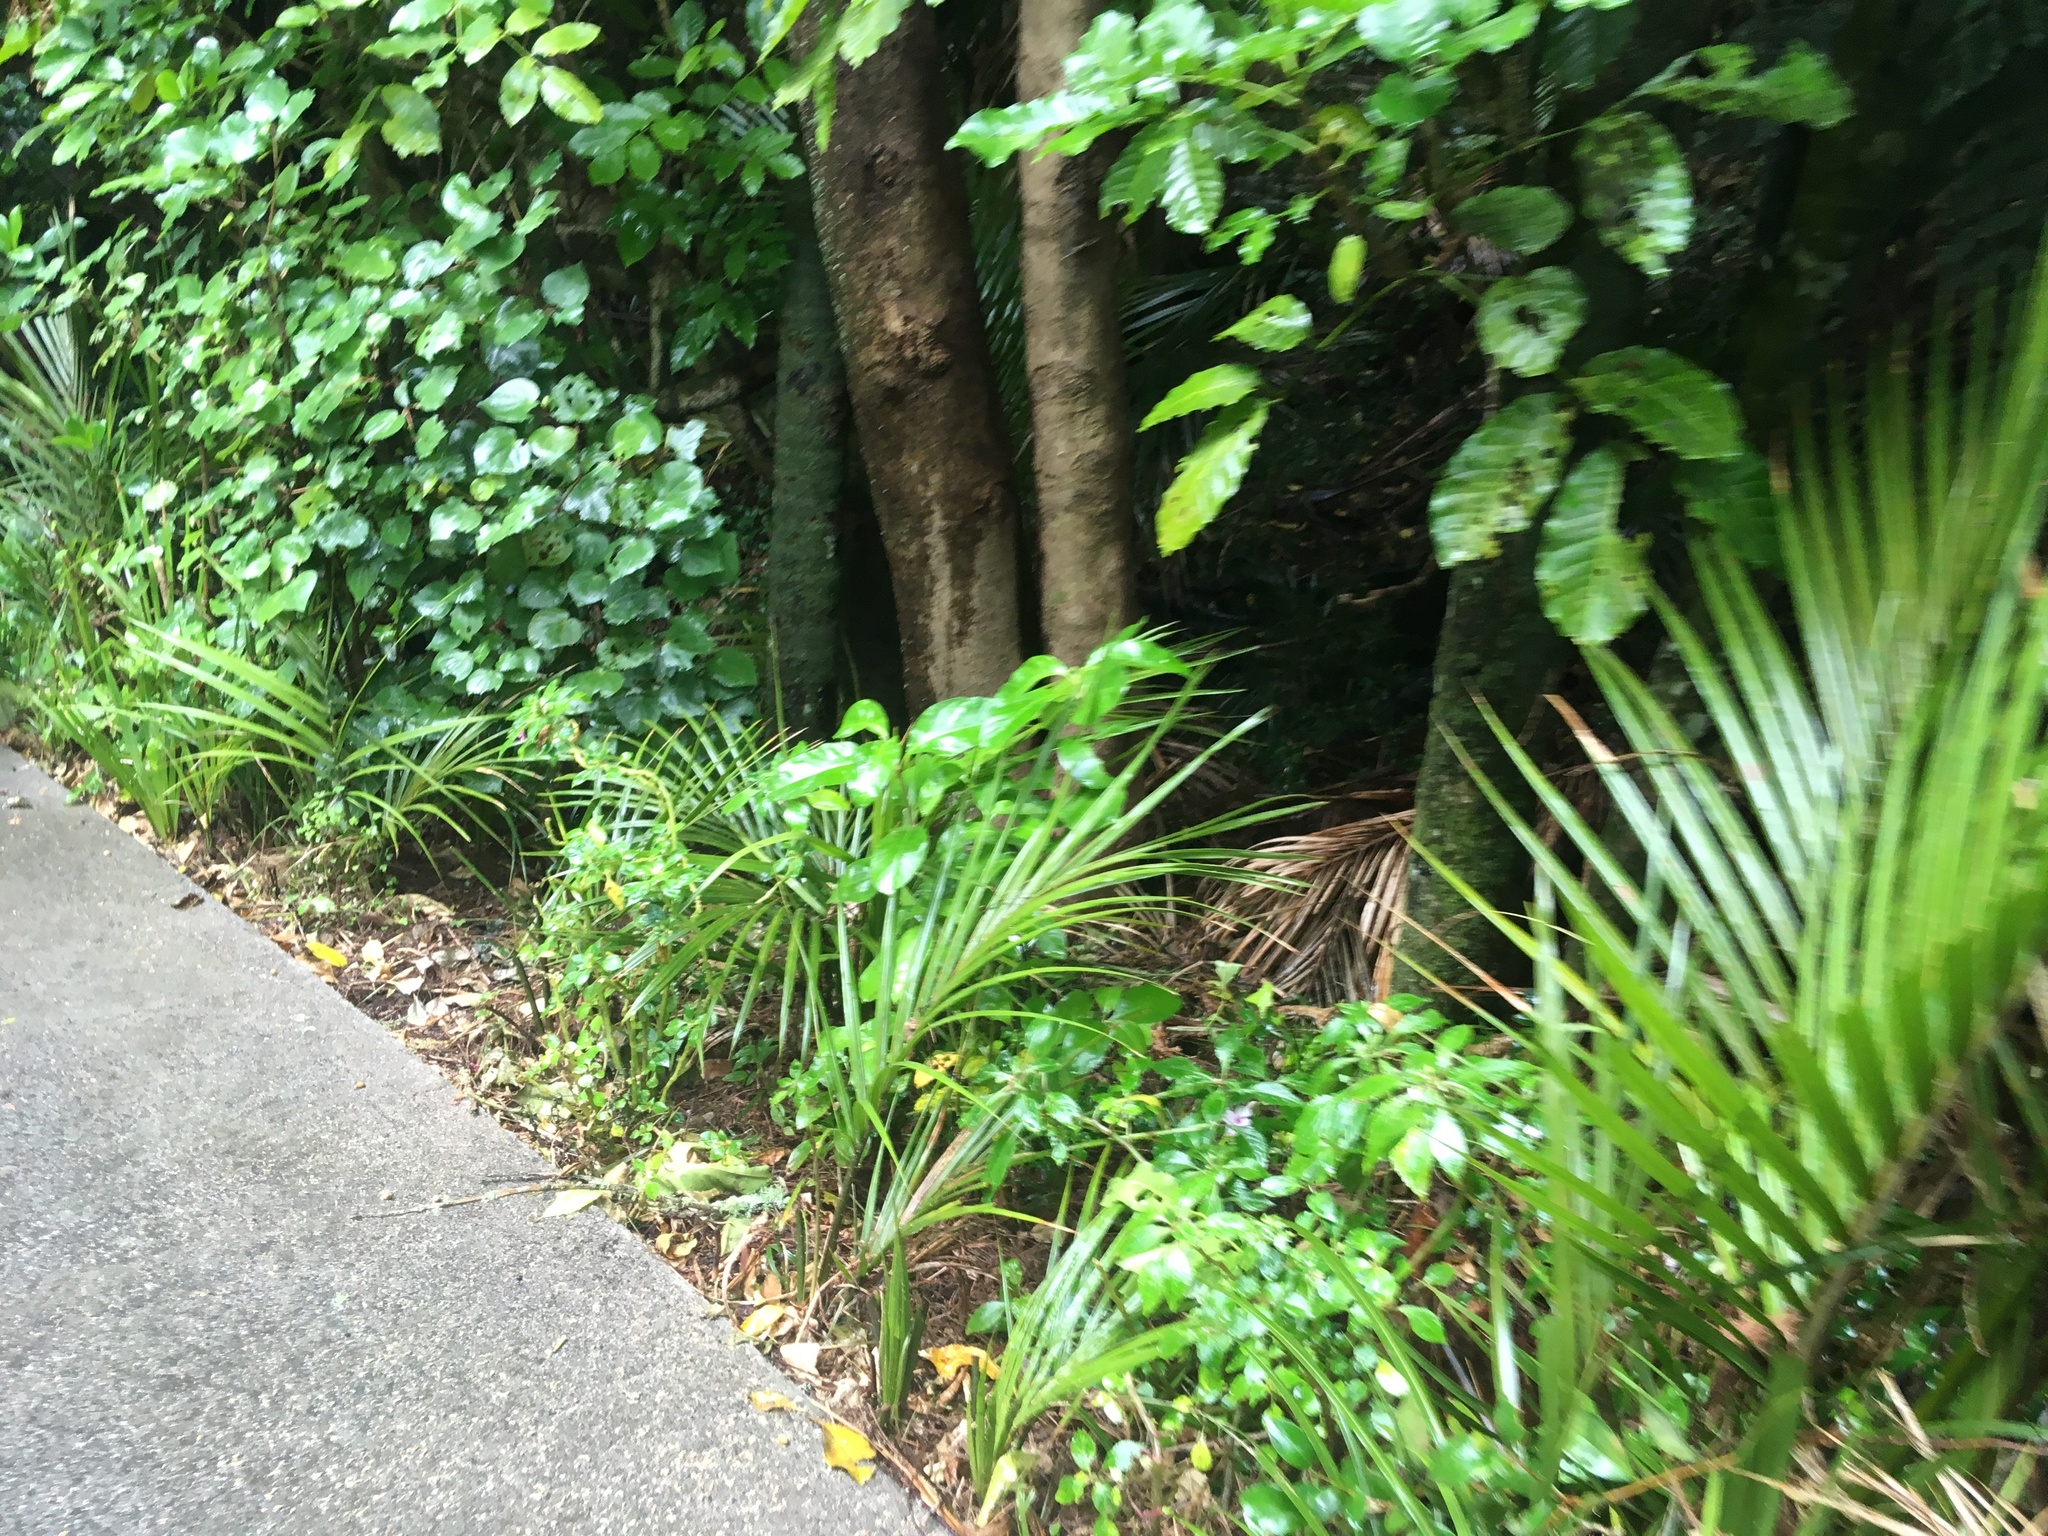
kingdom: Plantae
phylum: Tracheophyta
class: Magnoliopsida
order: Sapindales
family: Meliaceae
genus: Didymocheton
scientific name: Didymocheton spectabilis
